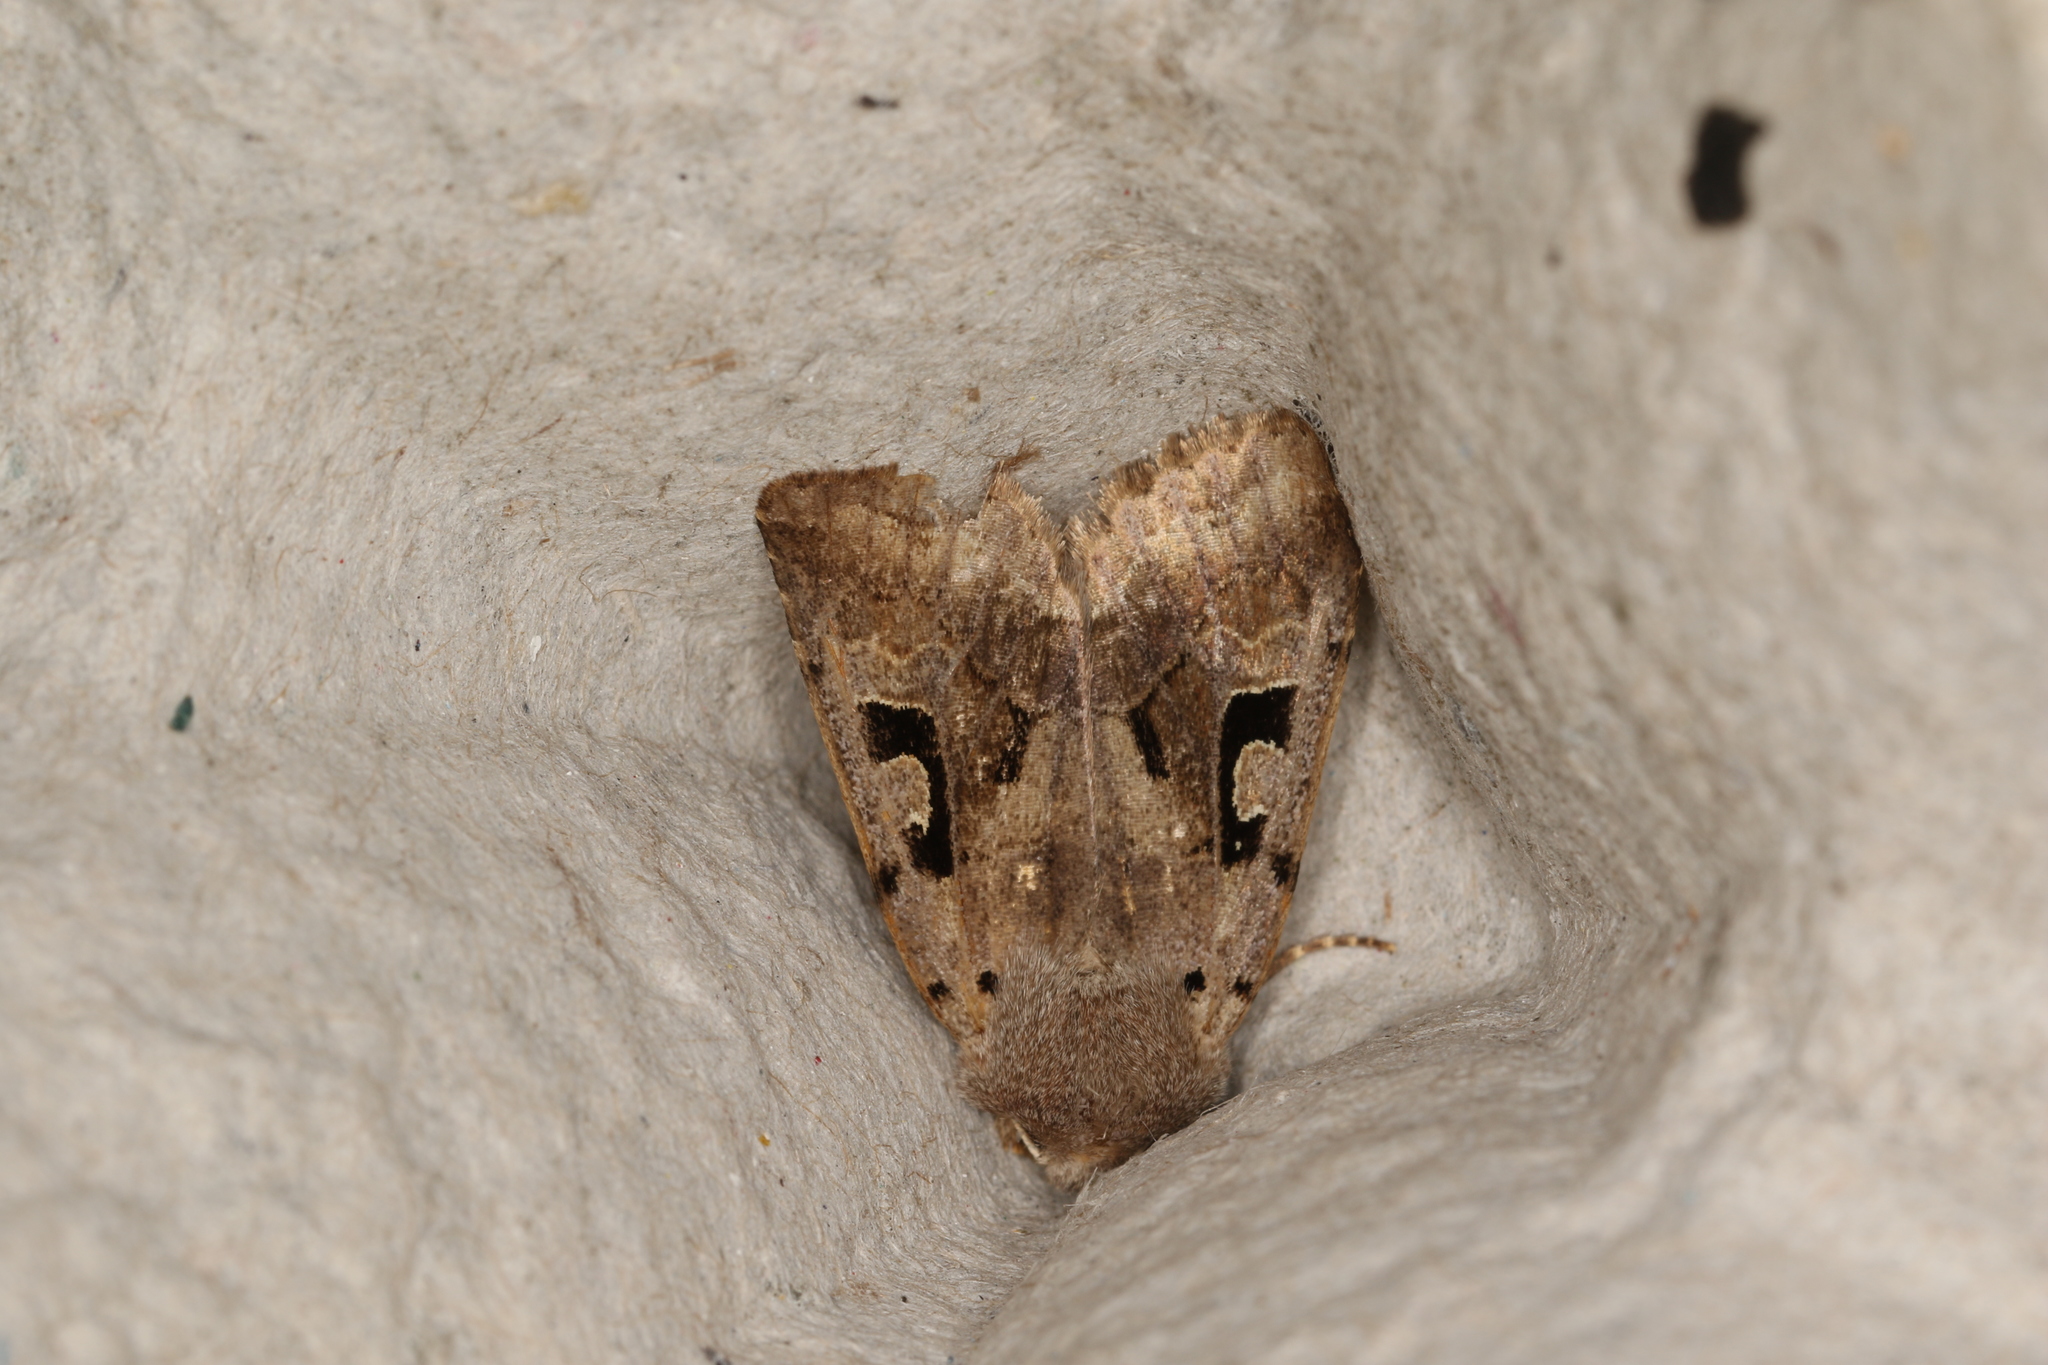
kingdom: Animalia
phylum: Arthropoda
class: Insecta
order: Lepidoptera
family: Noctuidae
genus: Orthosia
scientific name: Orthosia gothica
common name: Hebrew character
